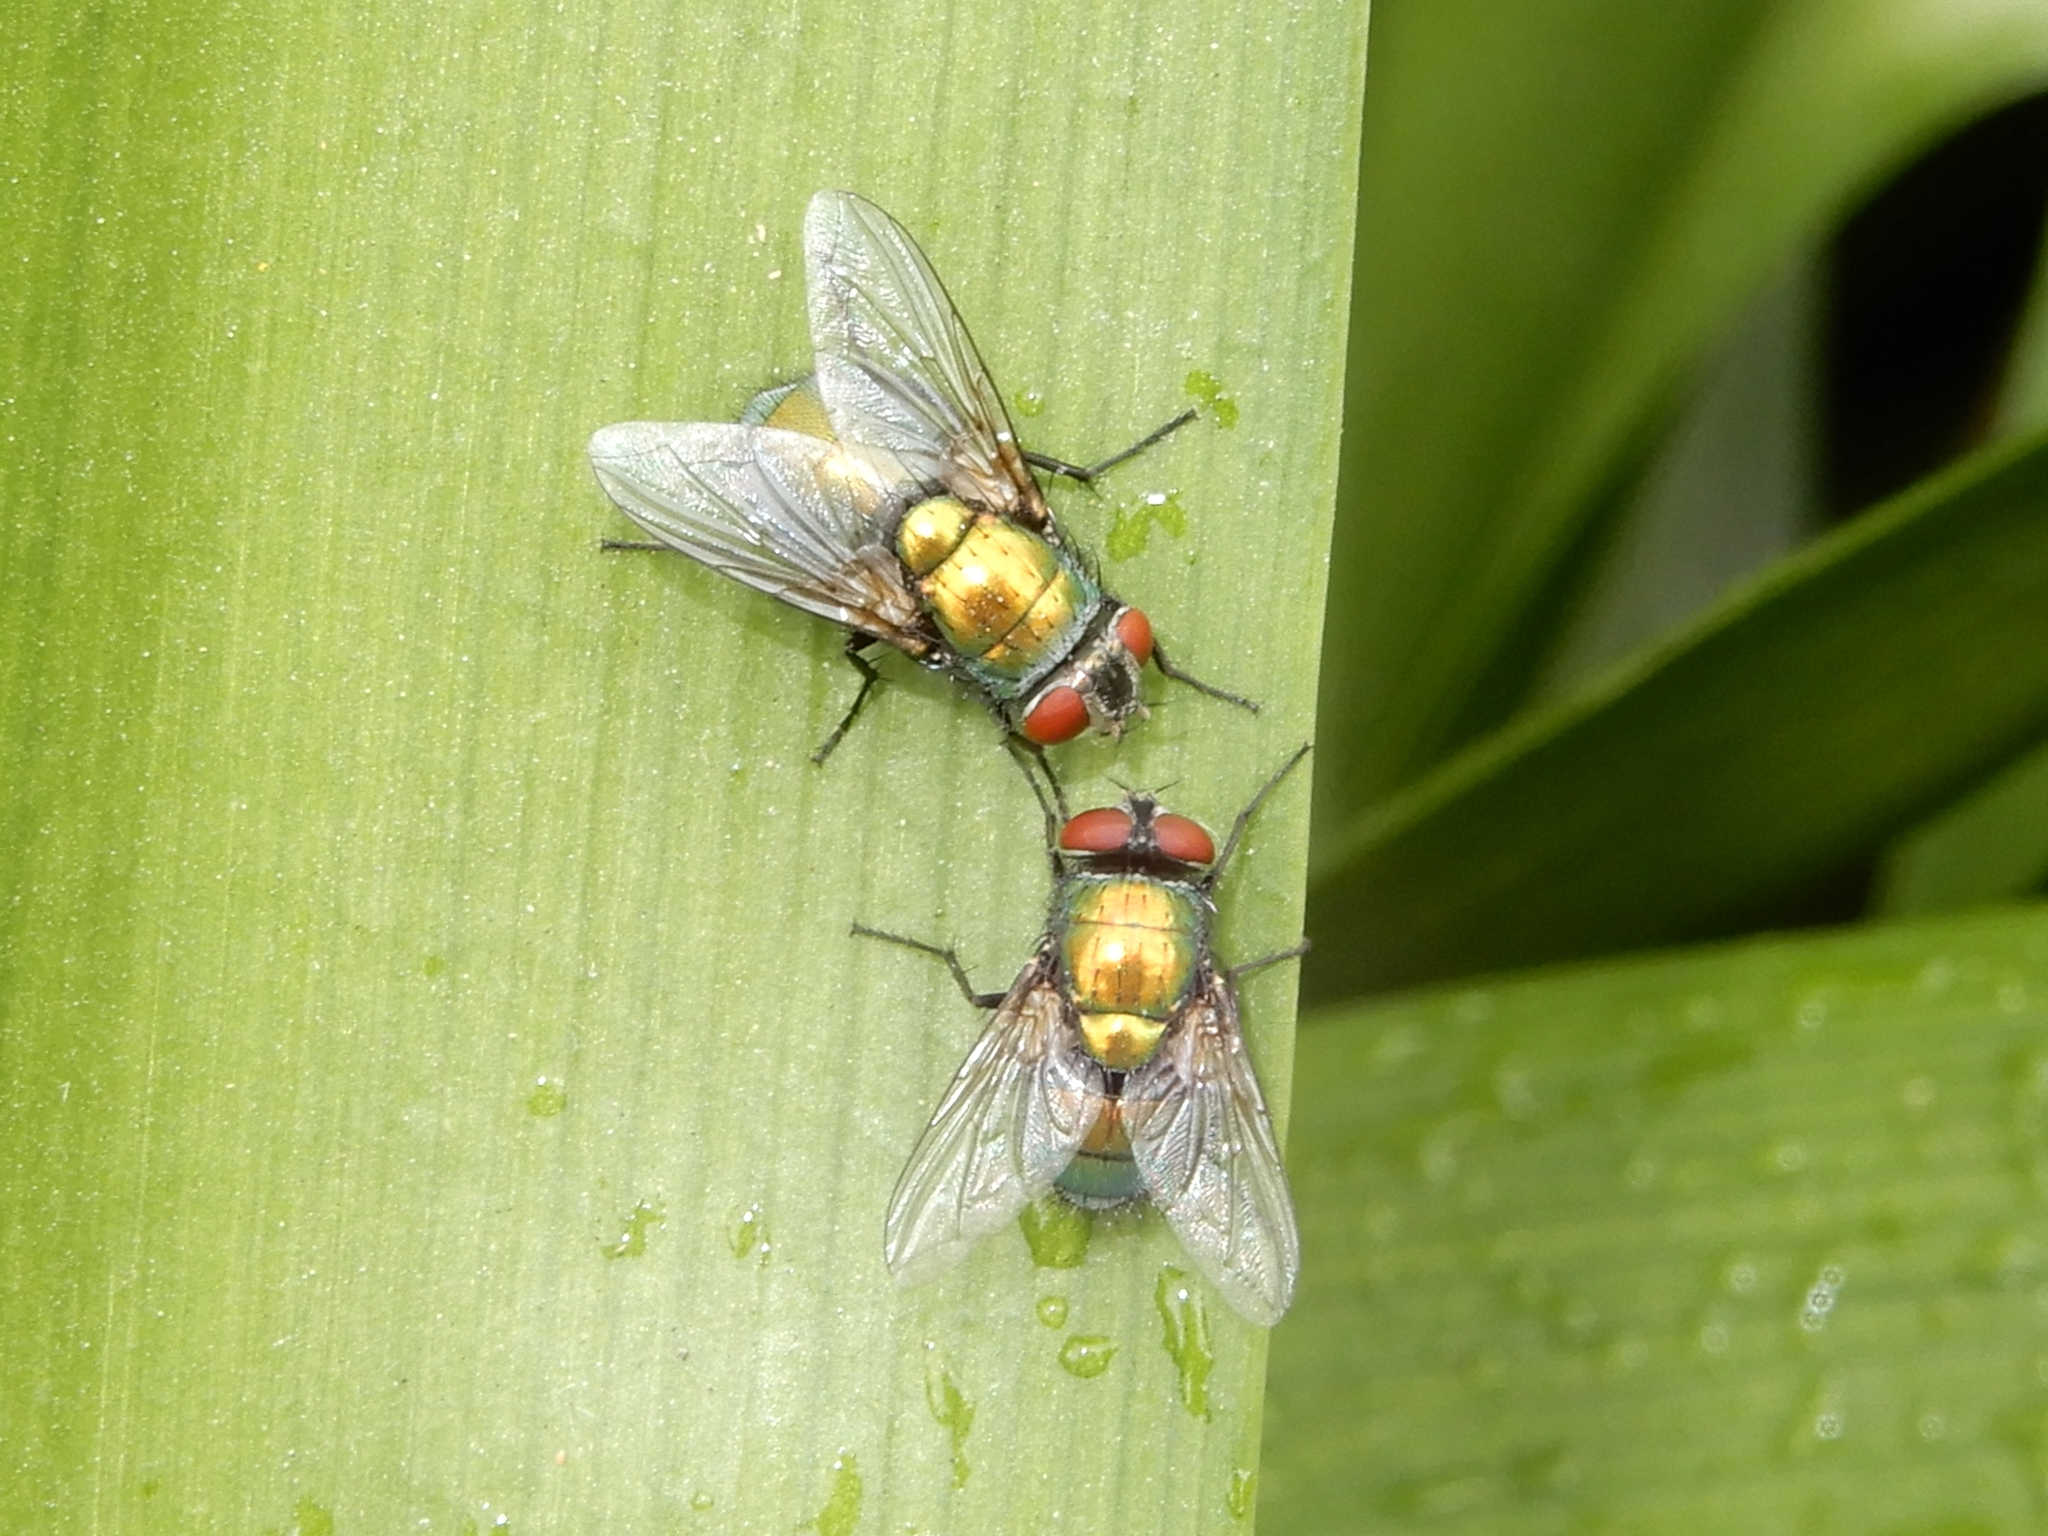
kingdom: Animalia
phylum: Arthropoda
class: Insecta
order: Diptera
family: Calliphoridae
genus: Lucilia
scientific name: Lucilia sericata
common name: Blow fly
